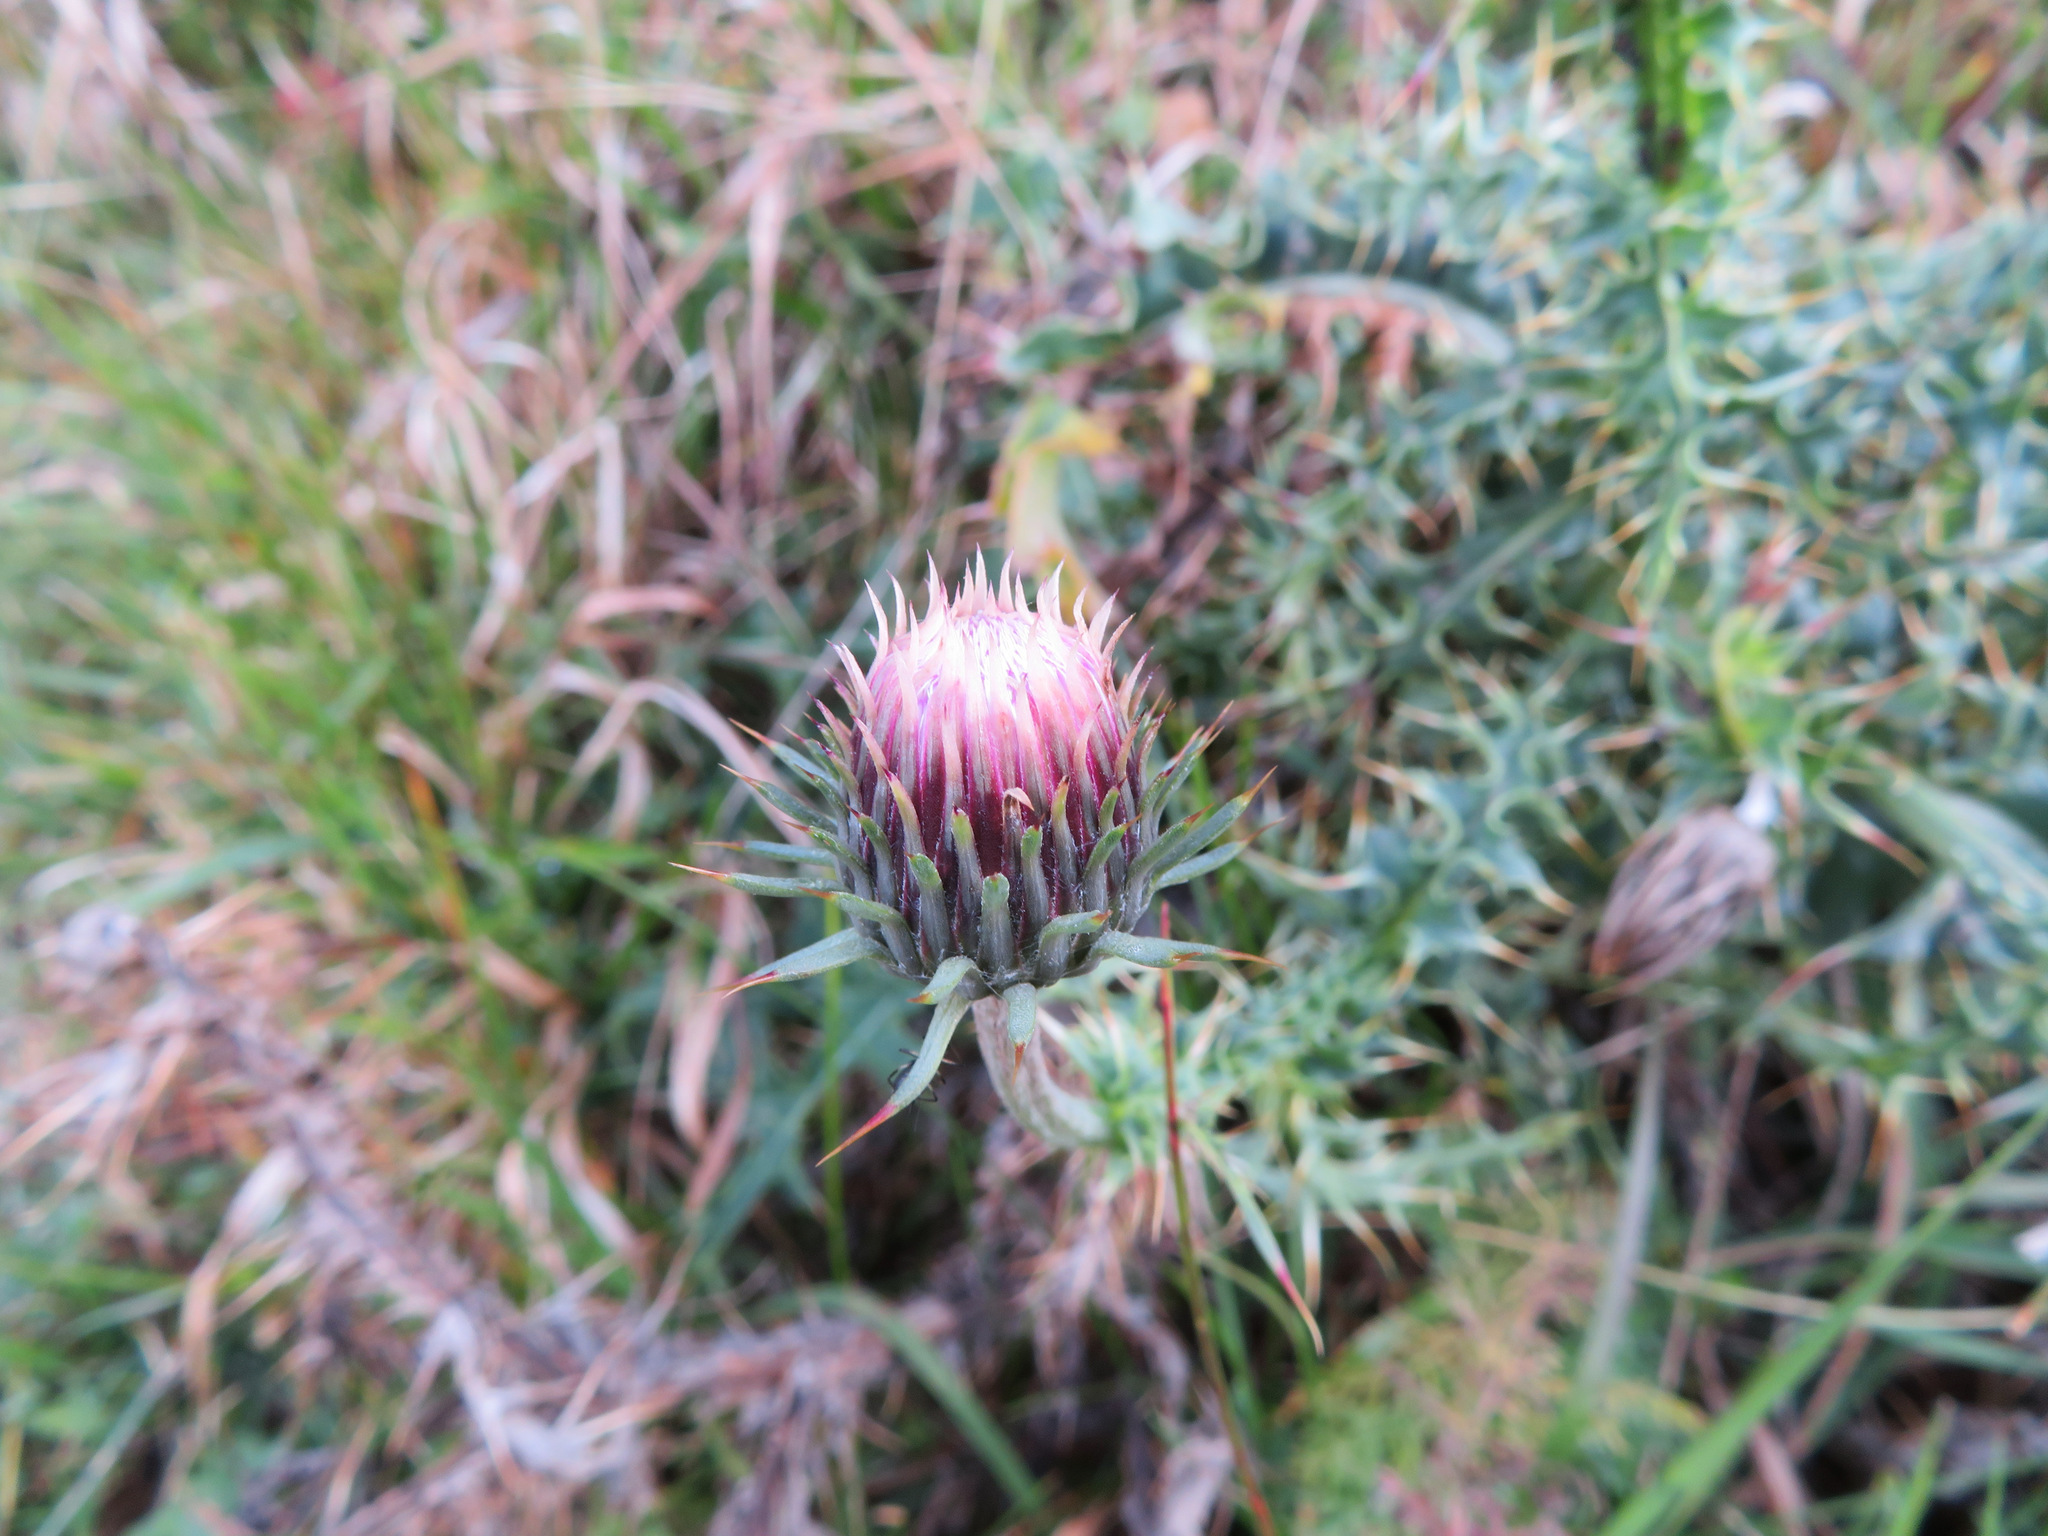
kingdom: Plantae
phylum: Tracheophyta
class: Magnoliopsida
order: Asterales
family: Asteraceae
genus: Carduus
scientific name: Carduus defloratus
